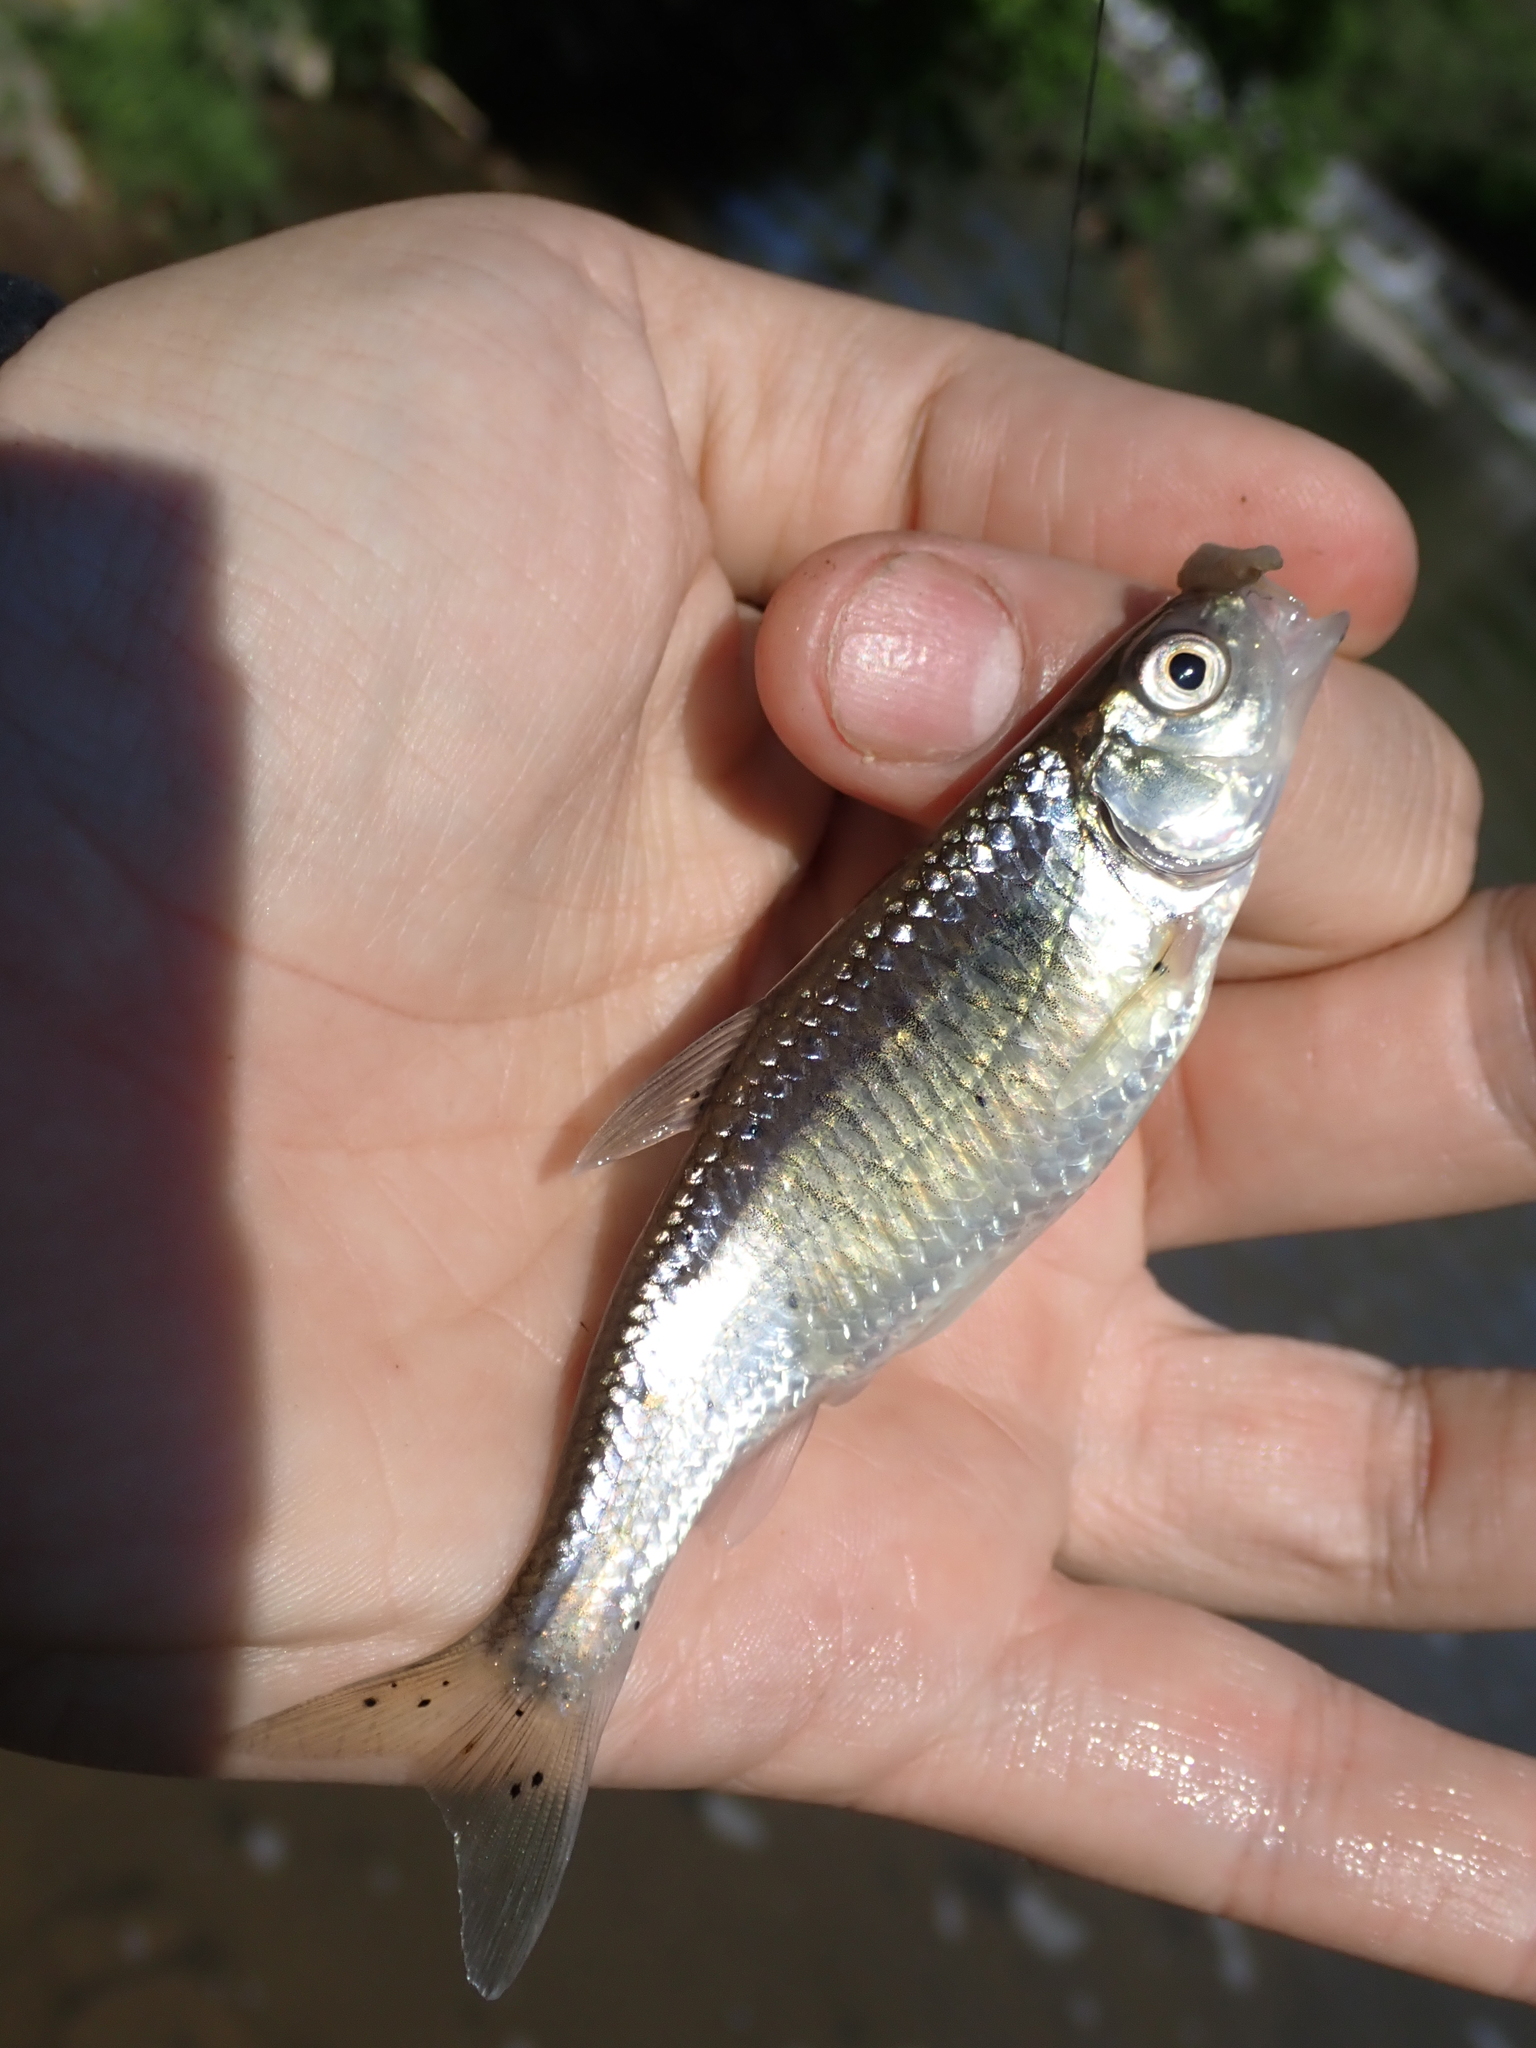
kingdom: Animalia
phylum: Chordata
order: Cypriniformes
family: Cyprinidae
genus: Luxilus
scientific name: Luxilus chrysocephalus
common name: Striped shiner
